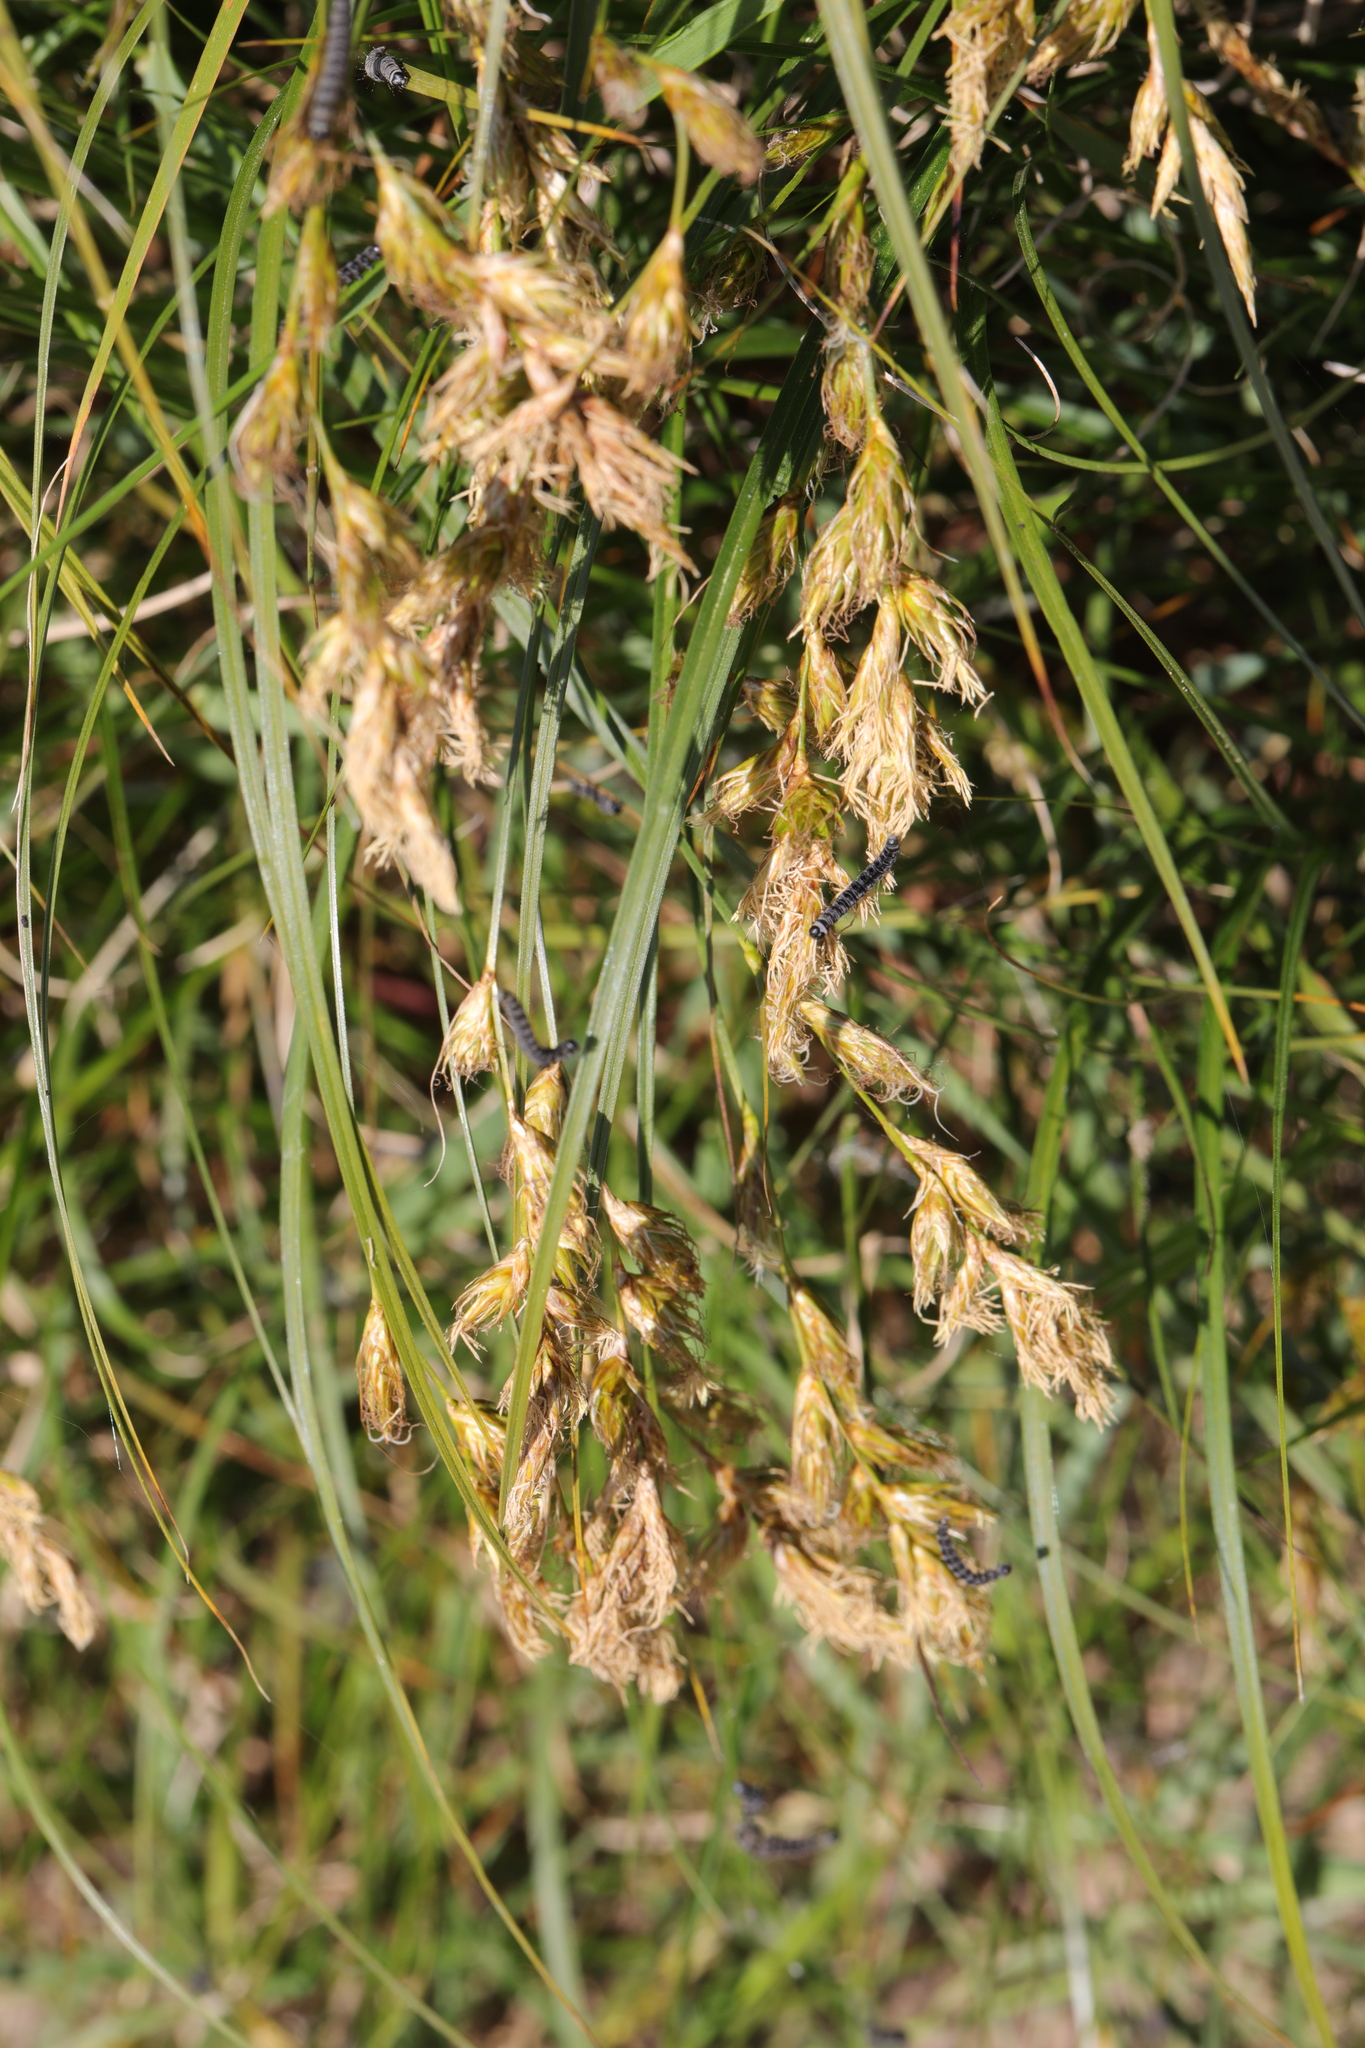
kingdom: Plantae
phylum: Tracheophyta
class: Liliopsida
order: Poales
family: Cyperaceae
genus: Carex
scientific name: Carex arenaria
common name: Sand sedge
